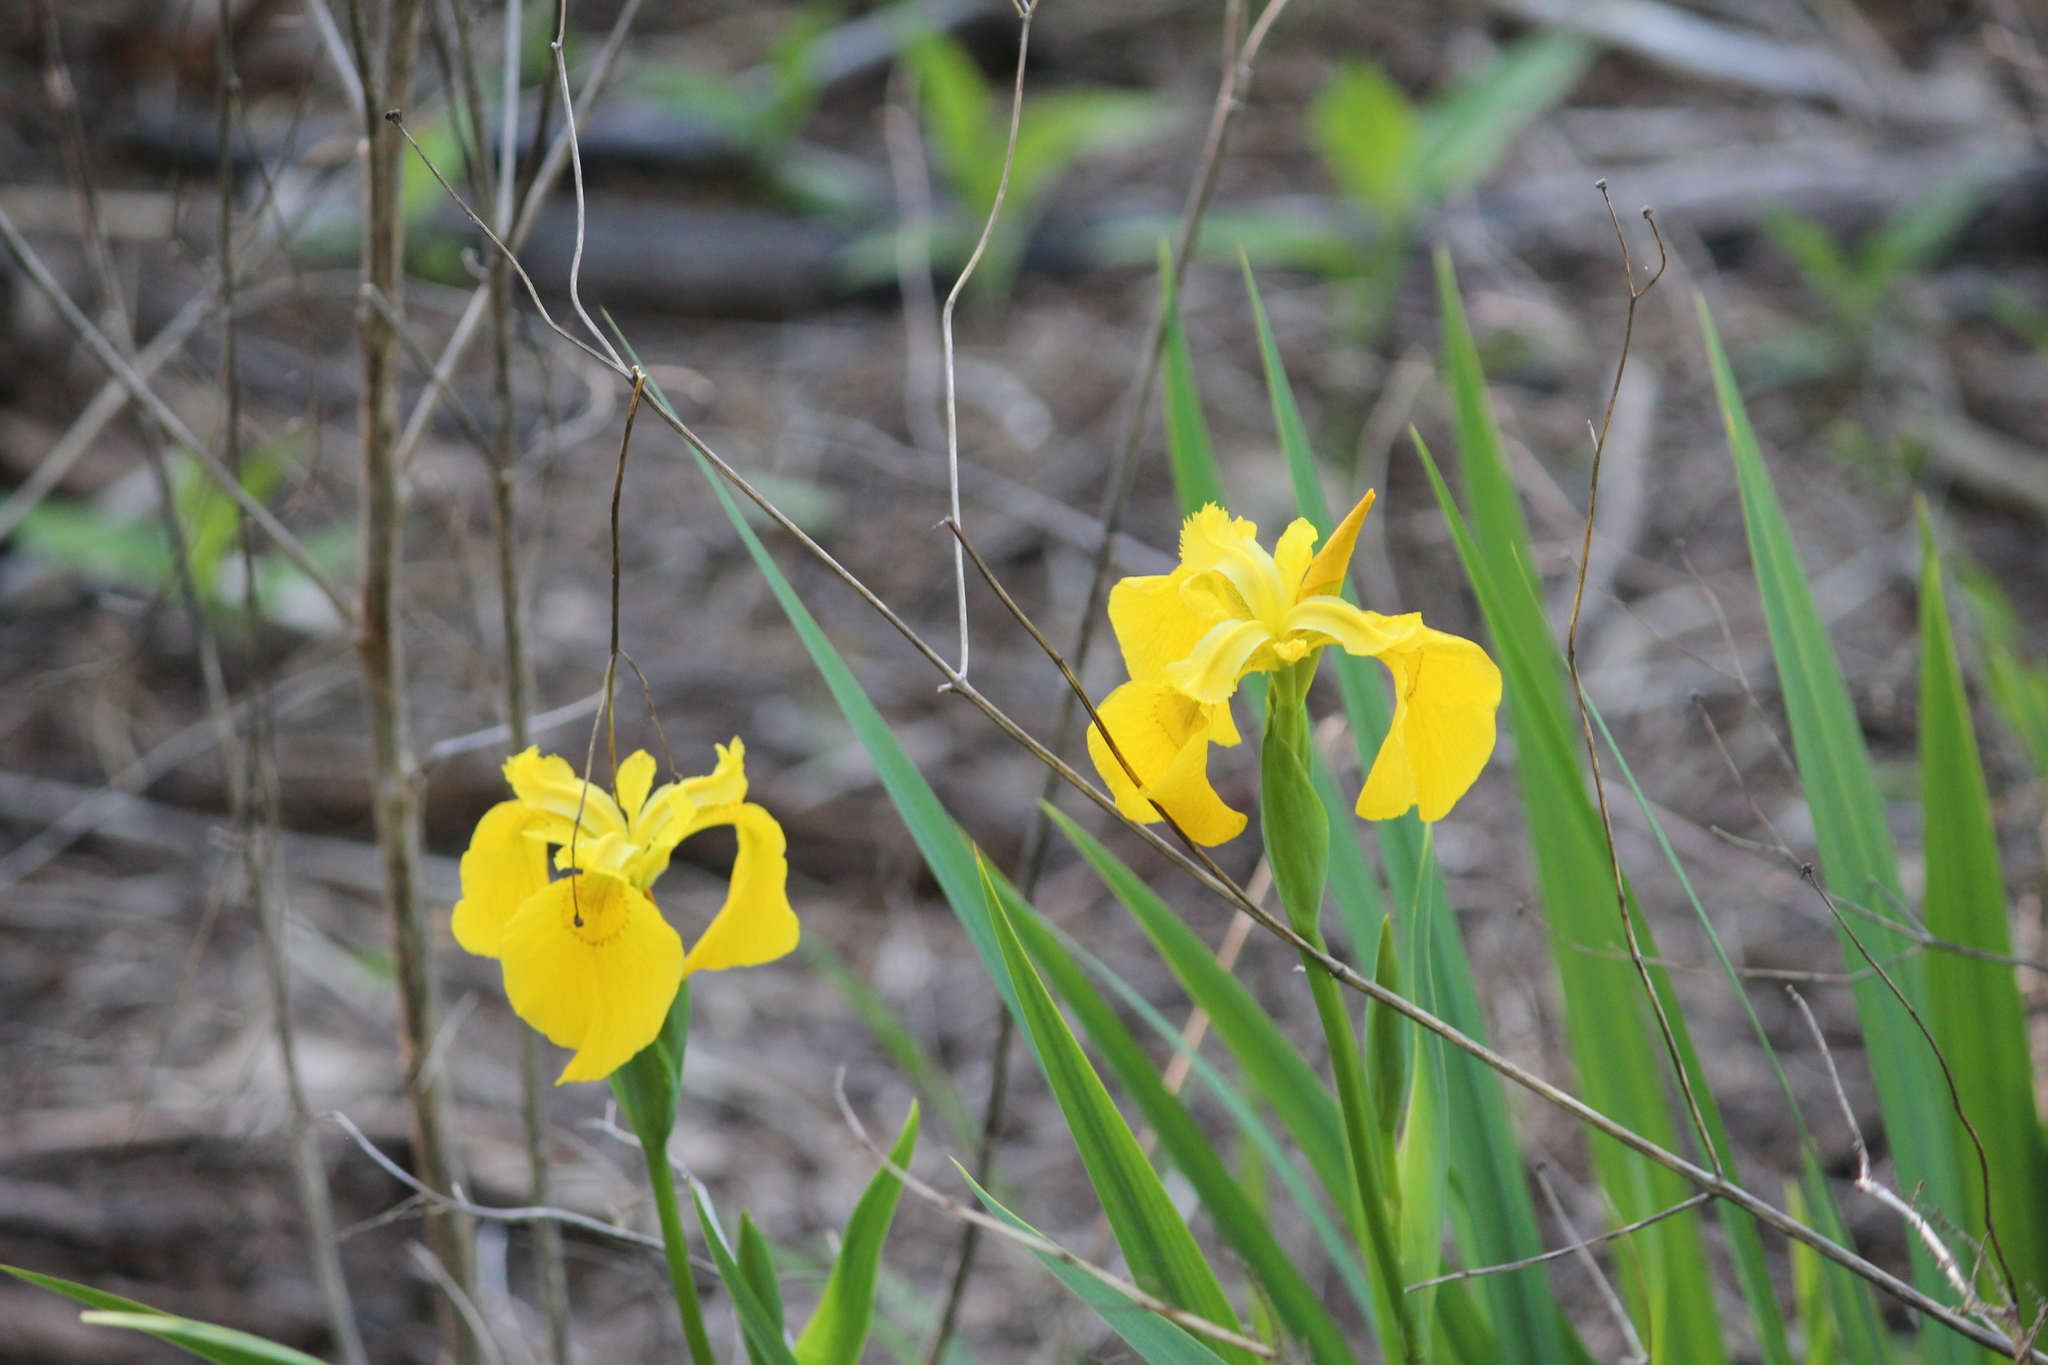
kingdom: Plantae
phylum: Tracheophyta
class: Liliopsida
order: Asparagales
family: Iridaceae
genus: Iris
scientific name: Iris pseudacorus
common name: Yellow flag
